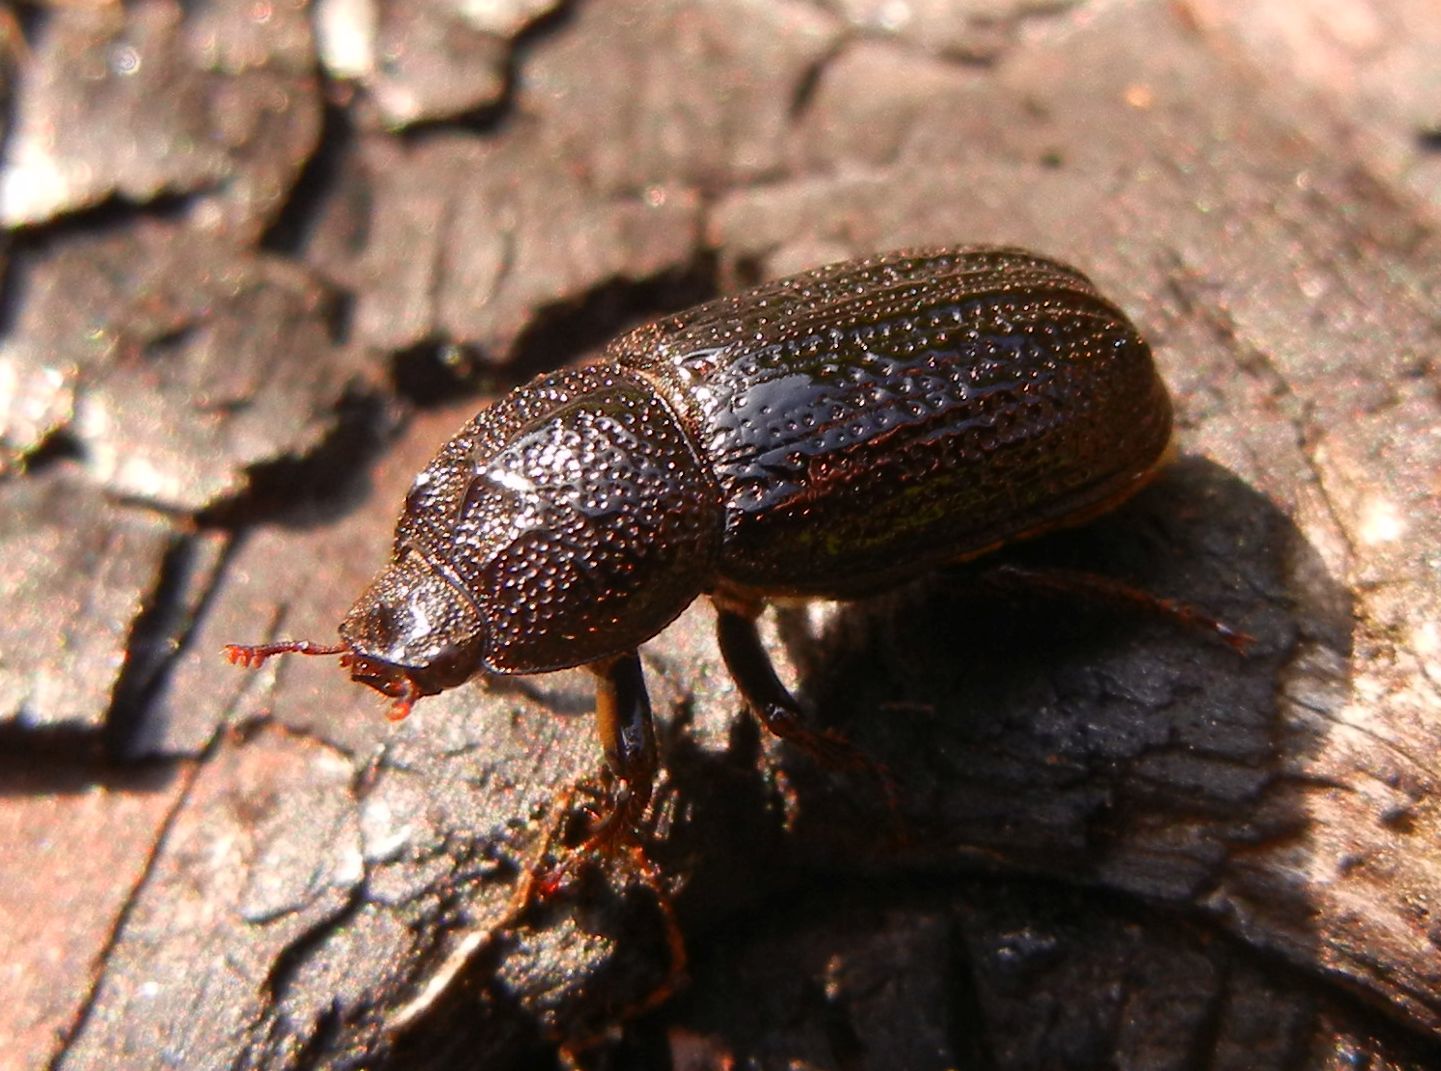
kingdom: Animalia
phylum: Arthropoda
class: Insecta
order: Coleoptera
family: Lucanidae
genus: Sinodendron
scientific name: Sinodendron cylindricum
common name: Rhinoceros beetle
